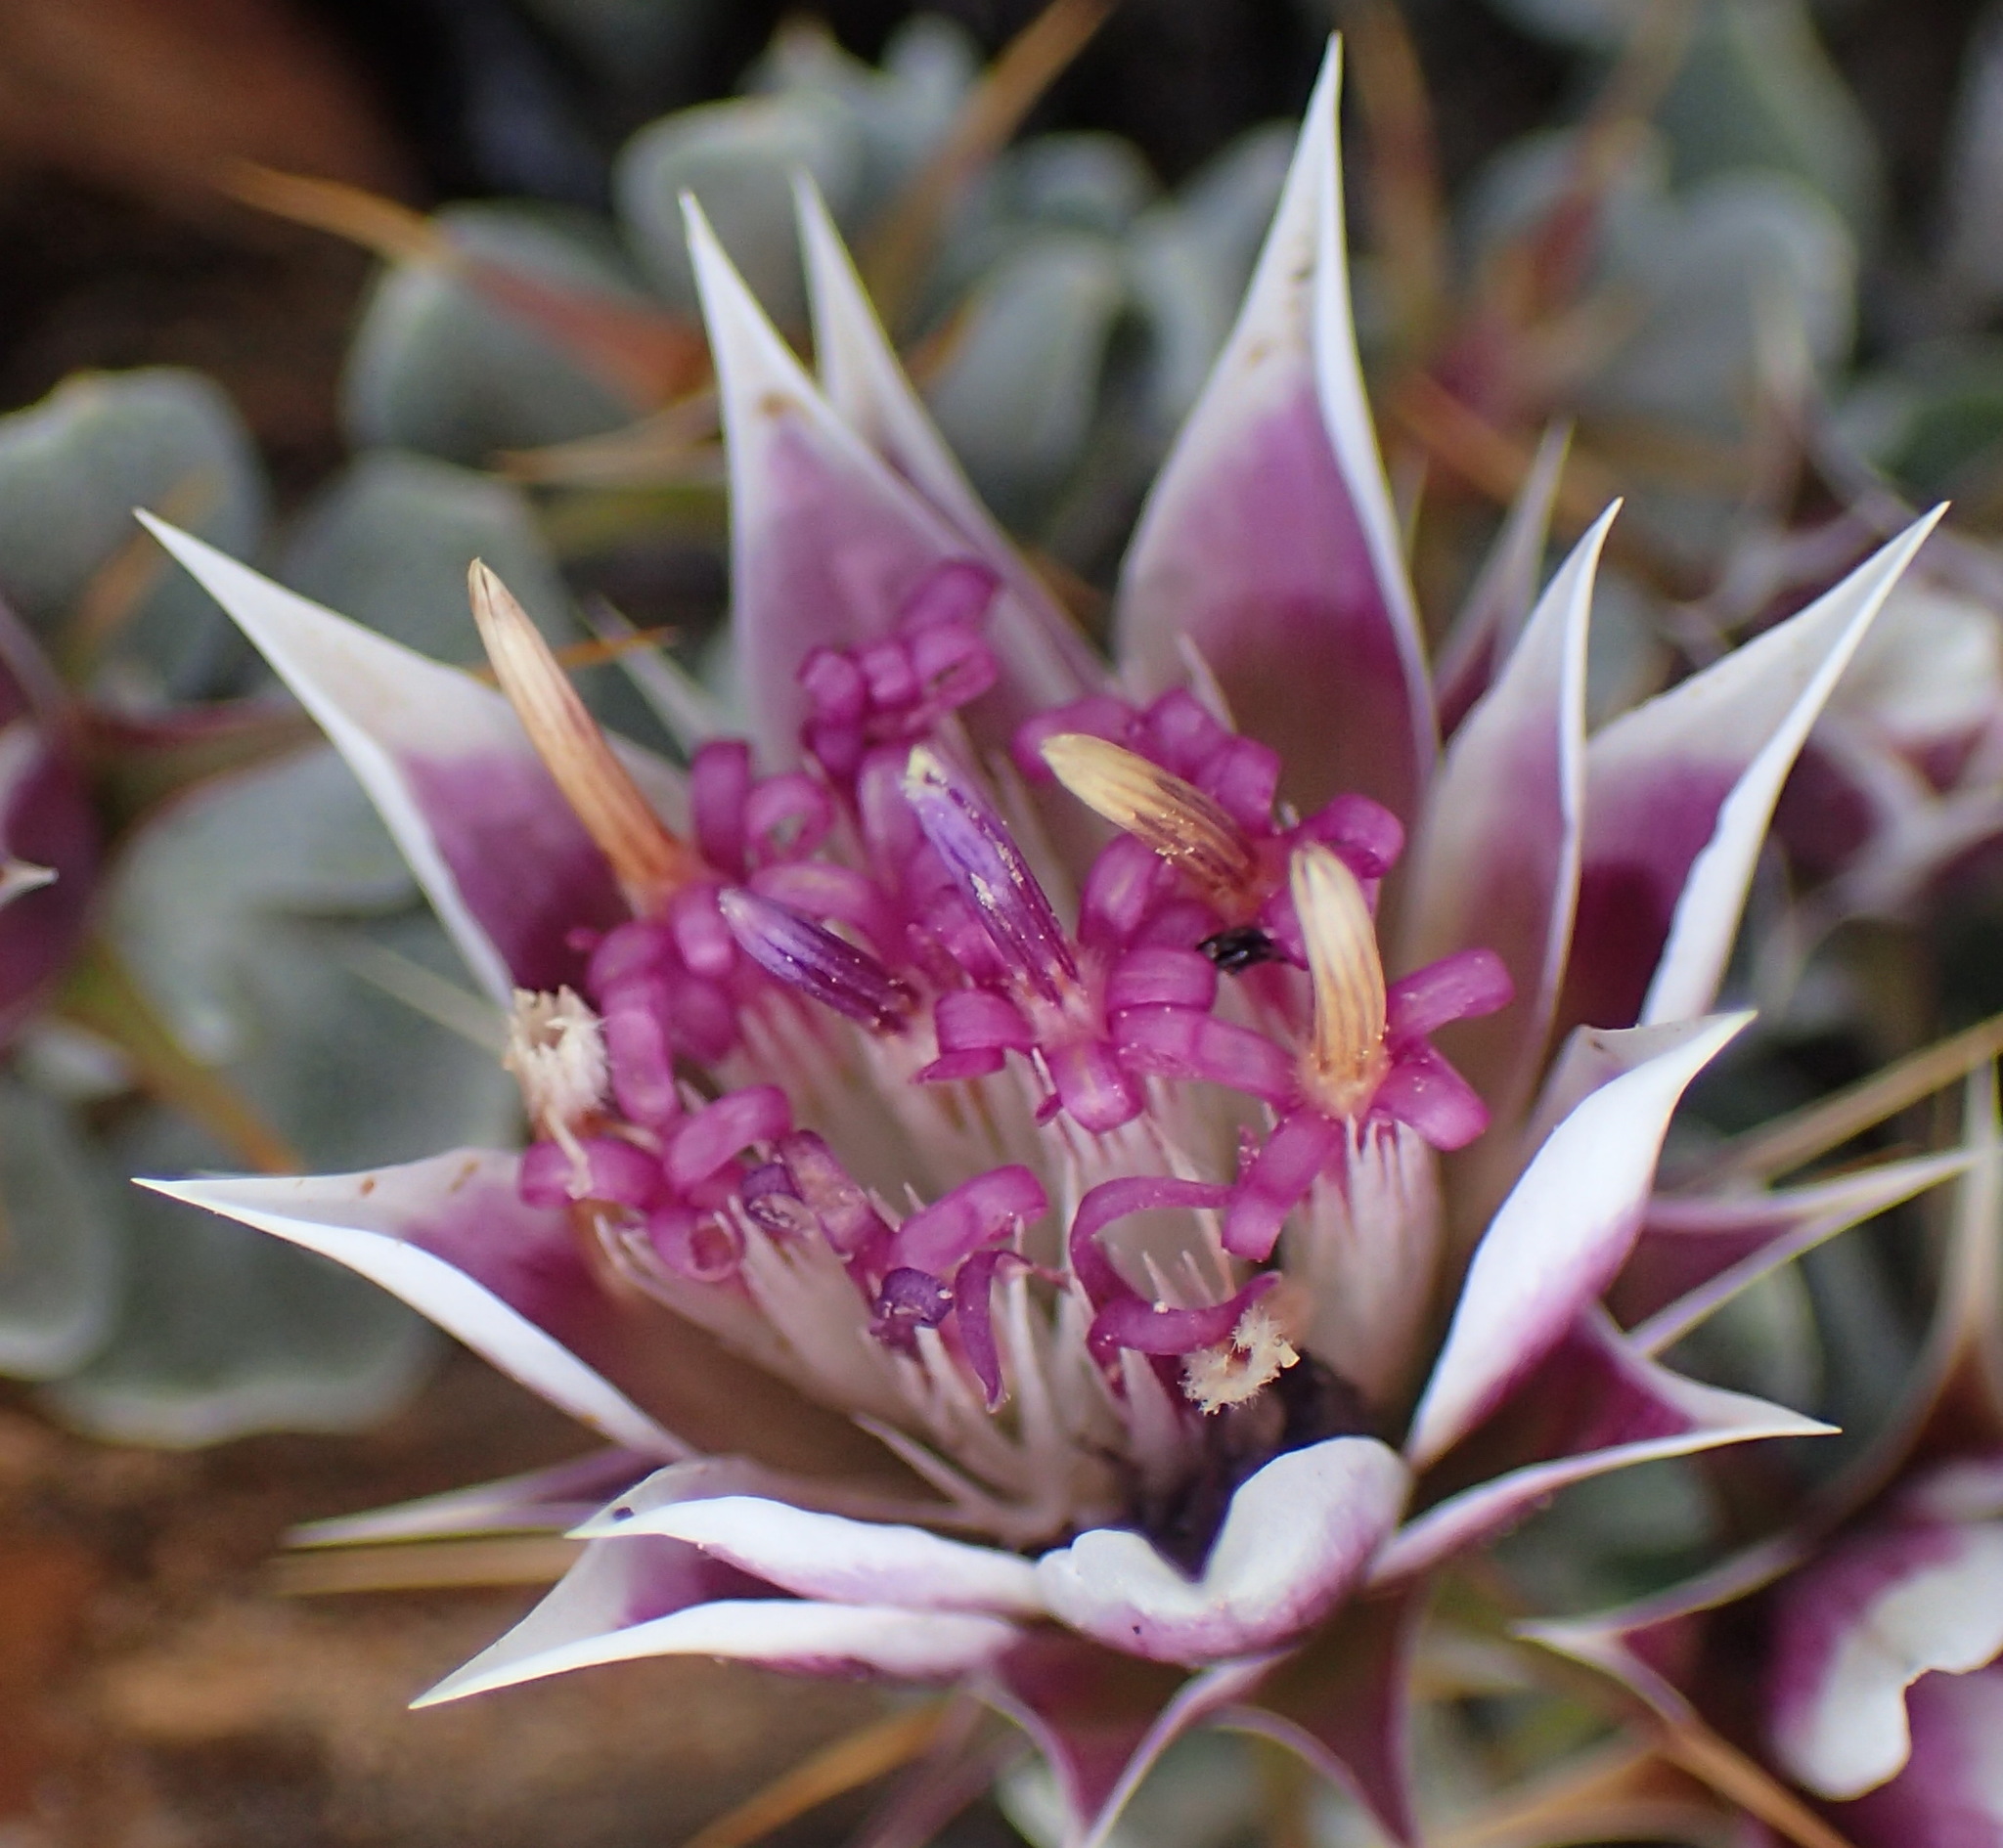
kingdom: Plantae
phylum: Tracheophyta
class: Magnoliopsida
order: Asterales
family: Asteraceae
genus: Macledium
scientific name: Macledium spinosum
